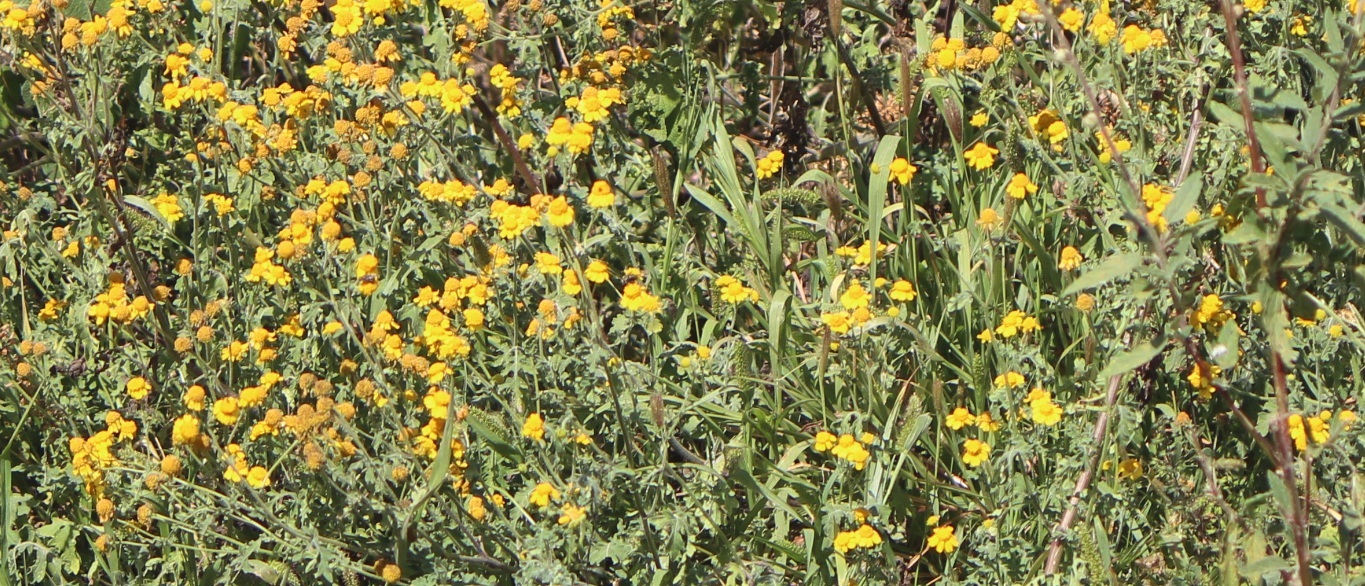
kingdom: Plantae
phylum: Tracheophyta
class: Magnoliopsida
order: Asterales
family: Asteraceae
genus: Zaluzania
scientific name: Zaluzania triloba
